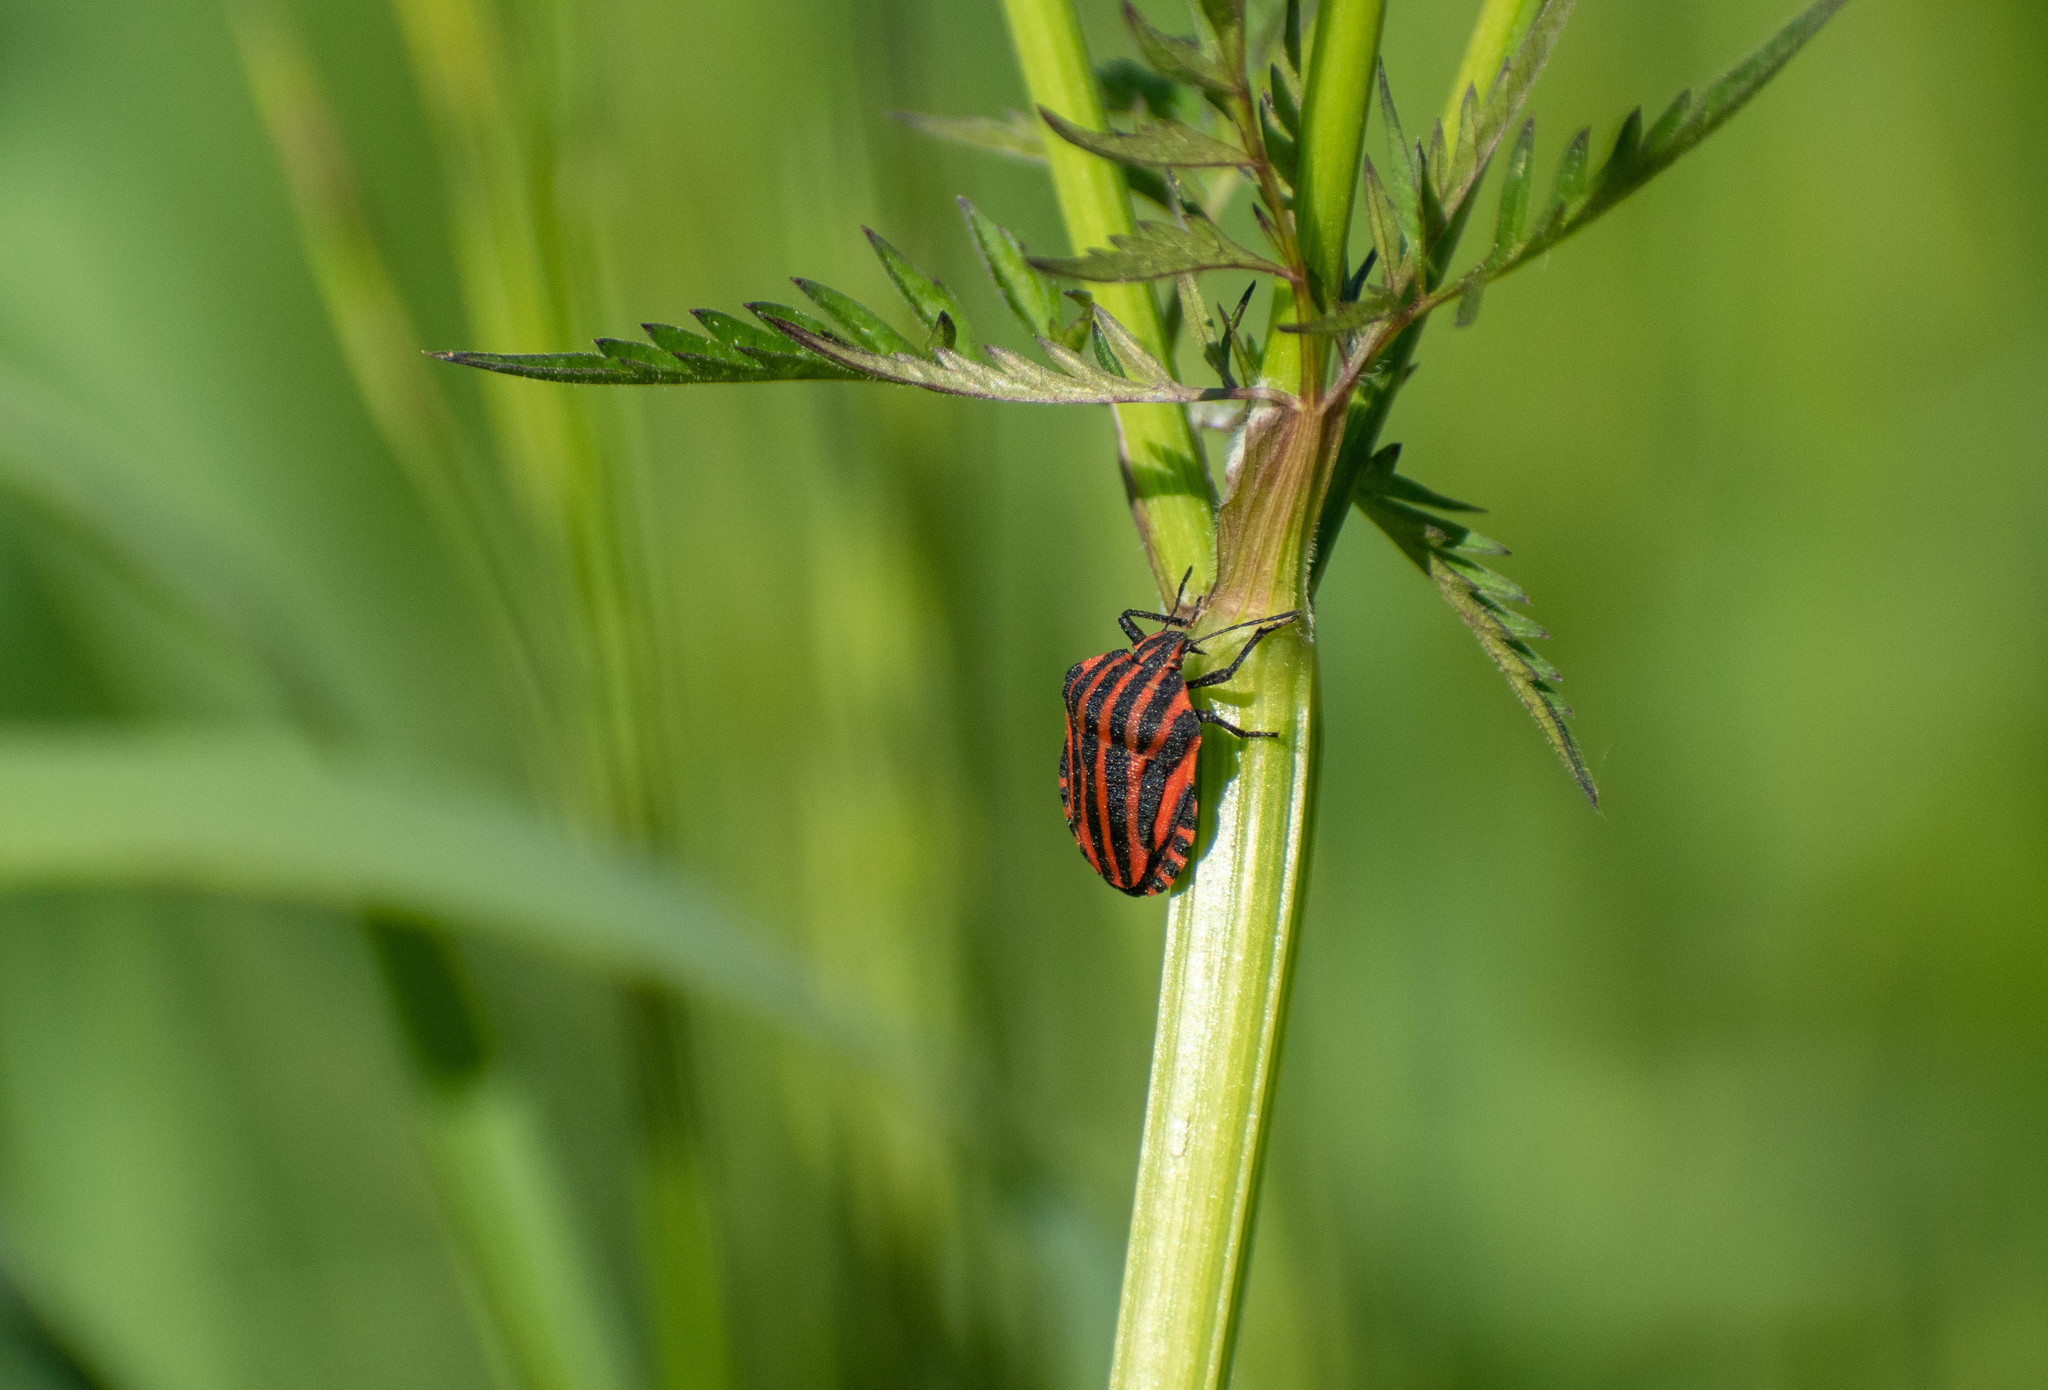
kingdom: Animalia
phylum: Arthropoda
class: Insecta
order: Hemiptera
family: Pentatomidae
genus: Graphosoma
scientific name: Graphosoma italicum
